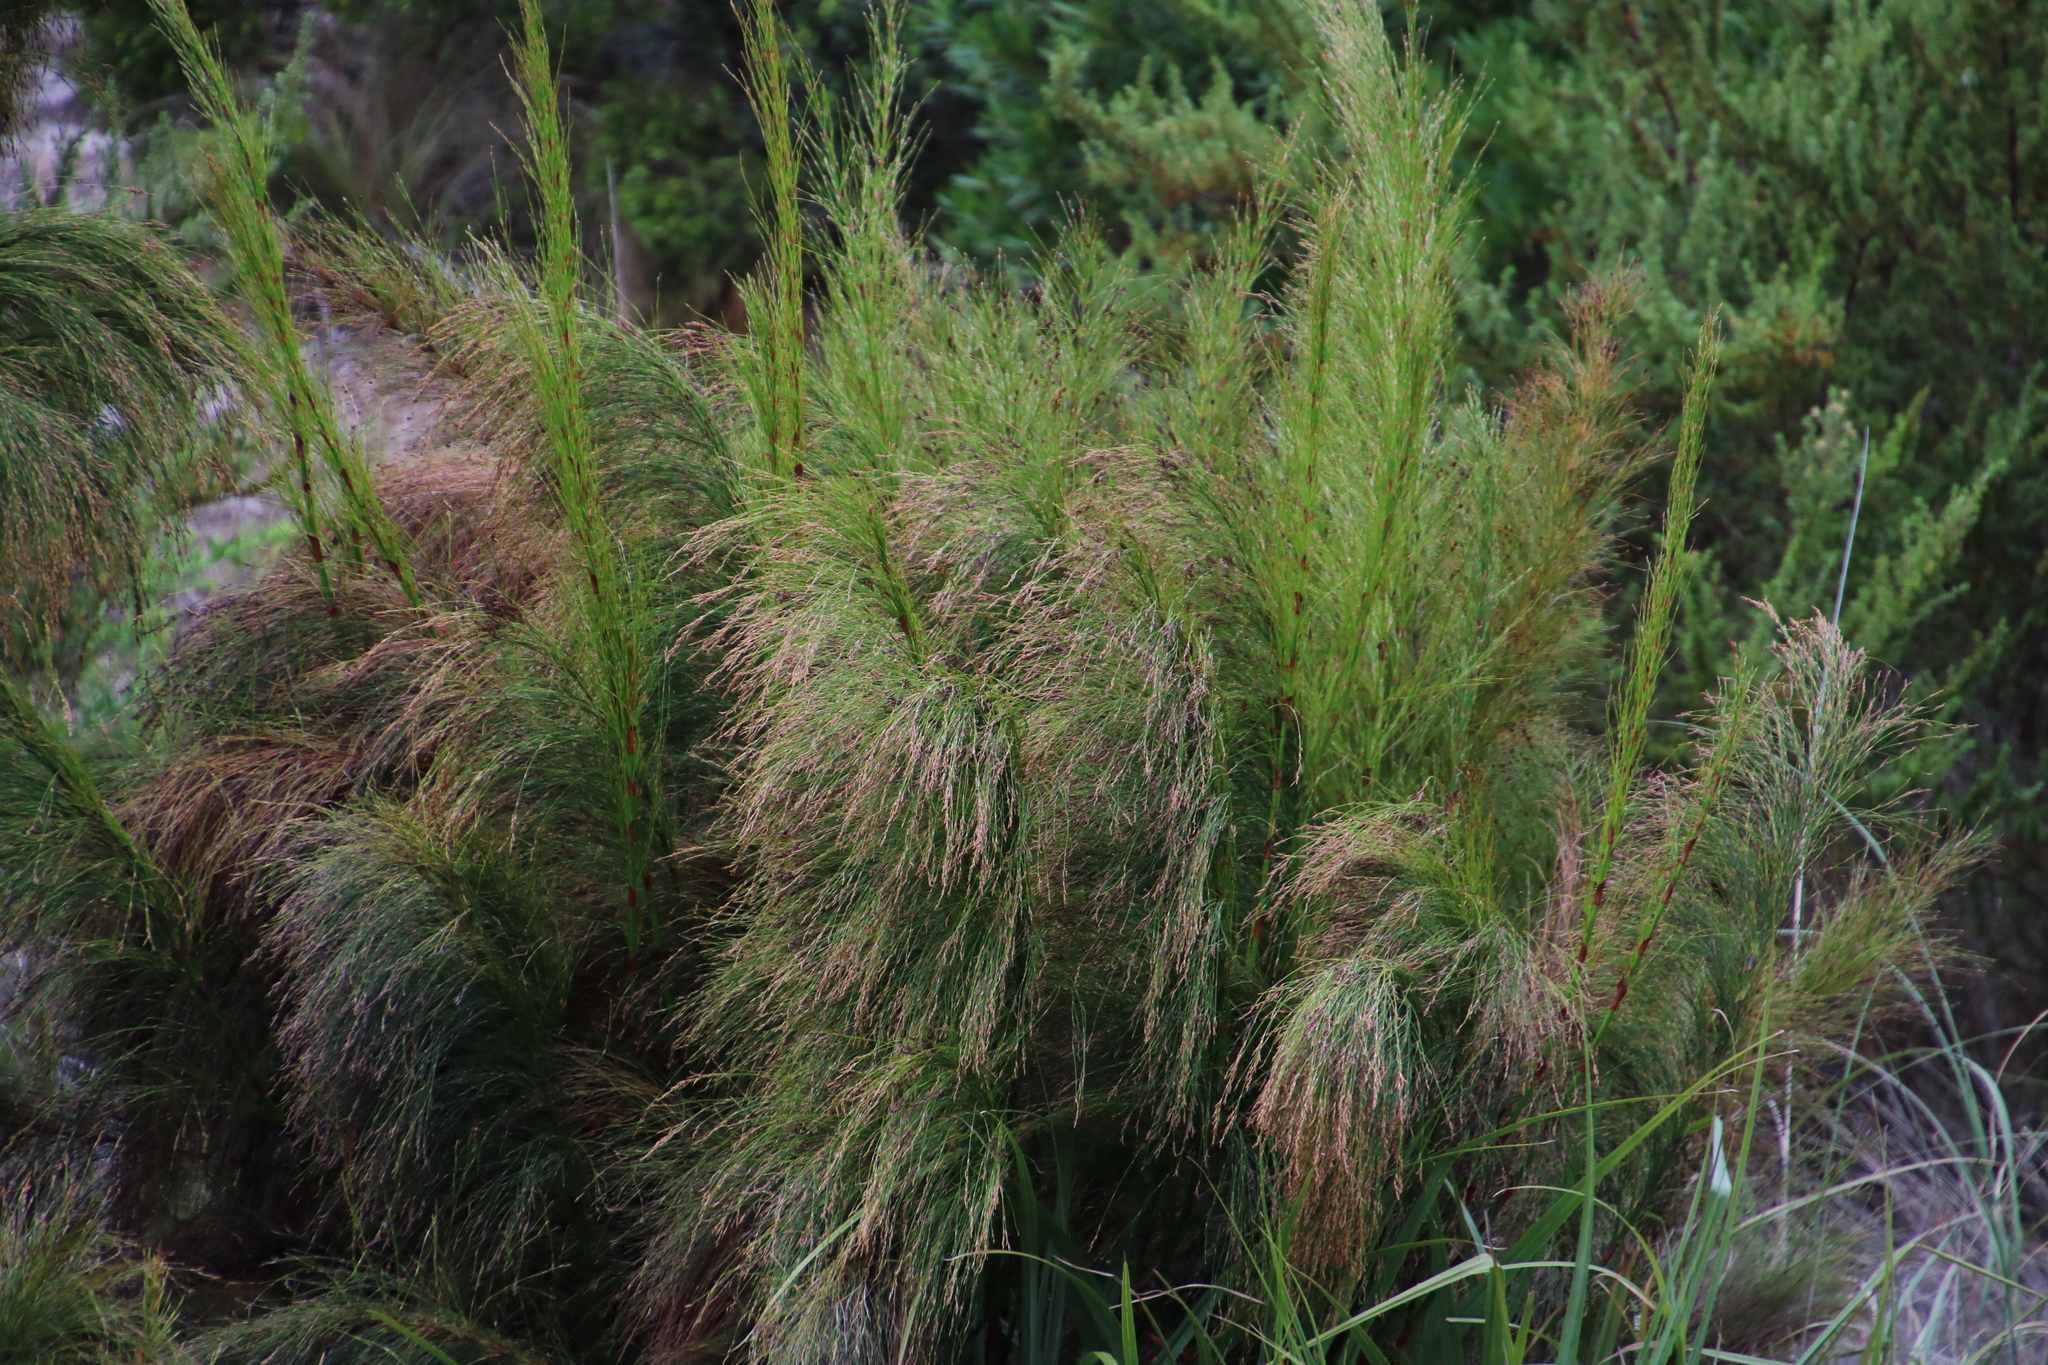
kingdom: Plantae
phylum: Tracheophyta
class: Liliopsida
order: Poales
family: Restionaceae
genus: Restio
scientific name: Restio paniculatus
